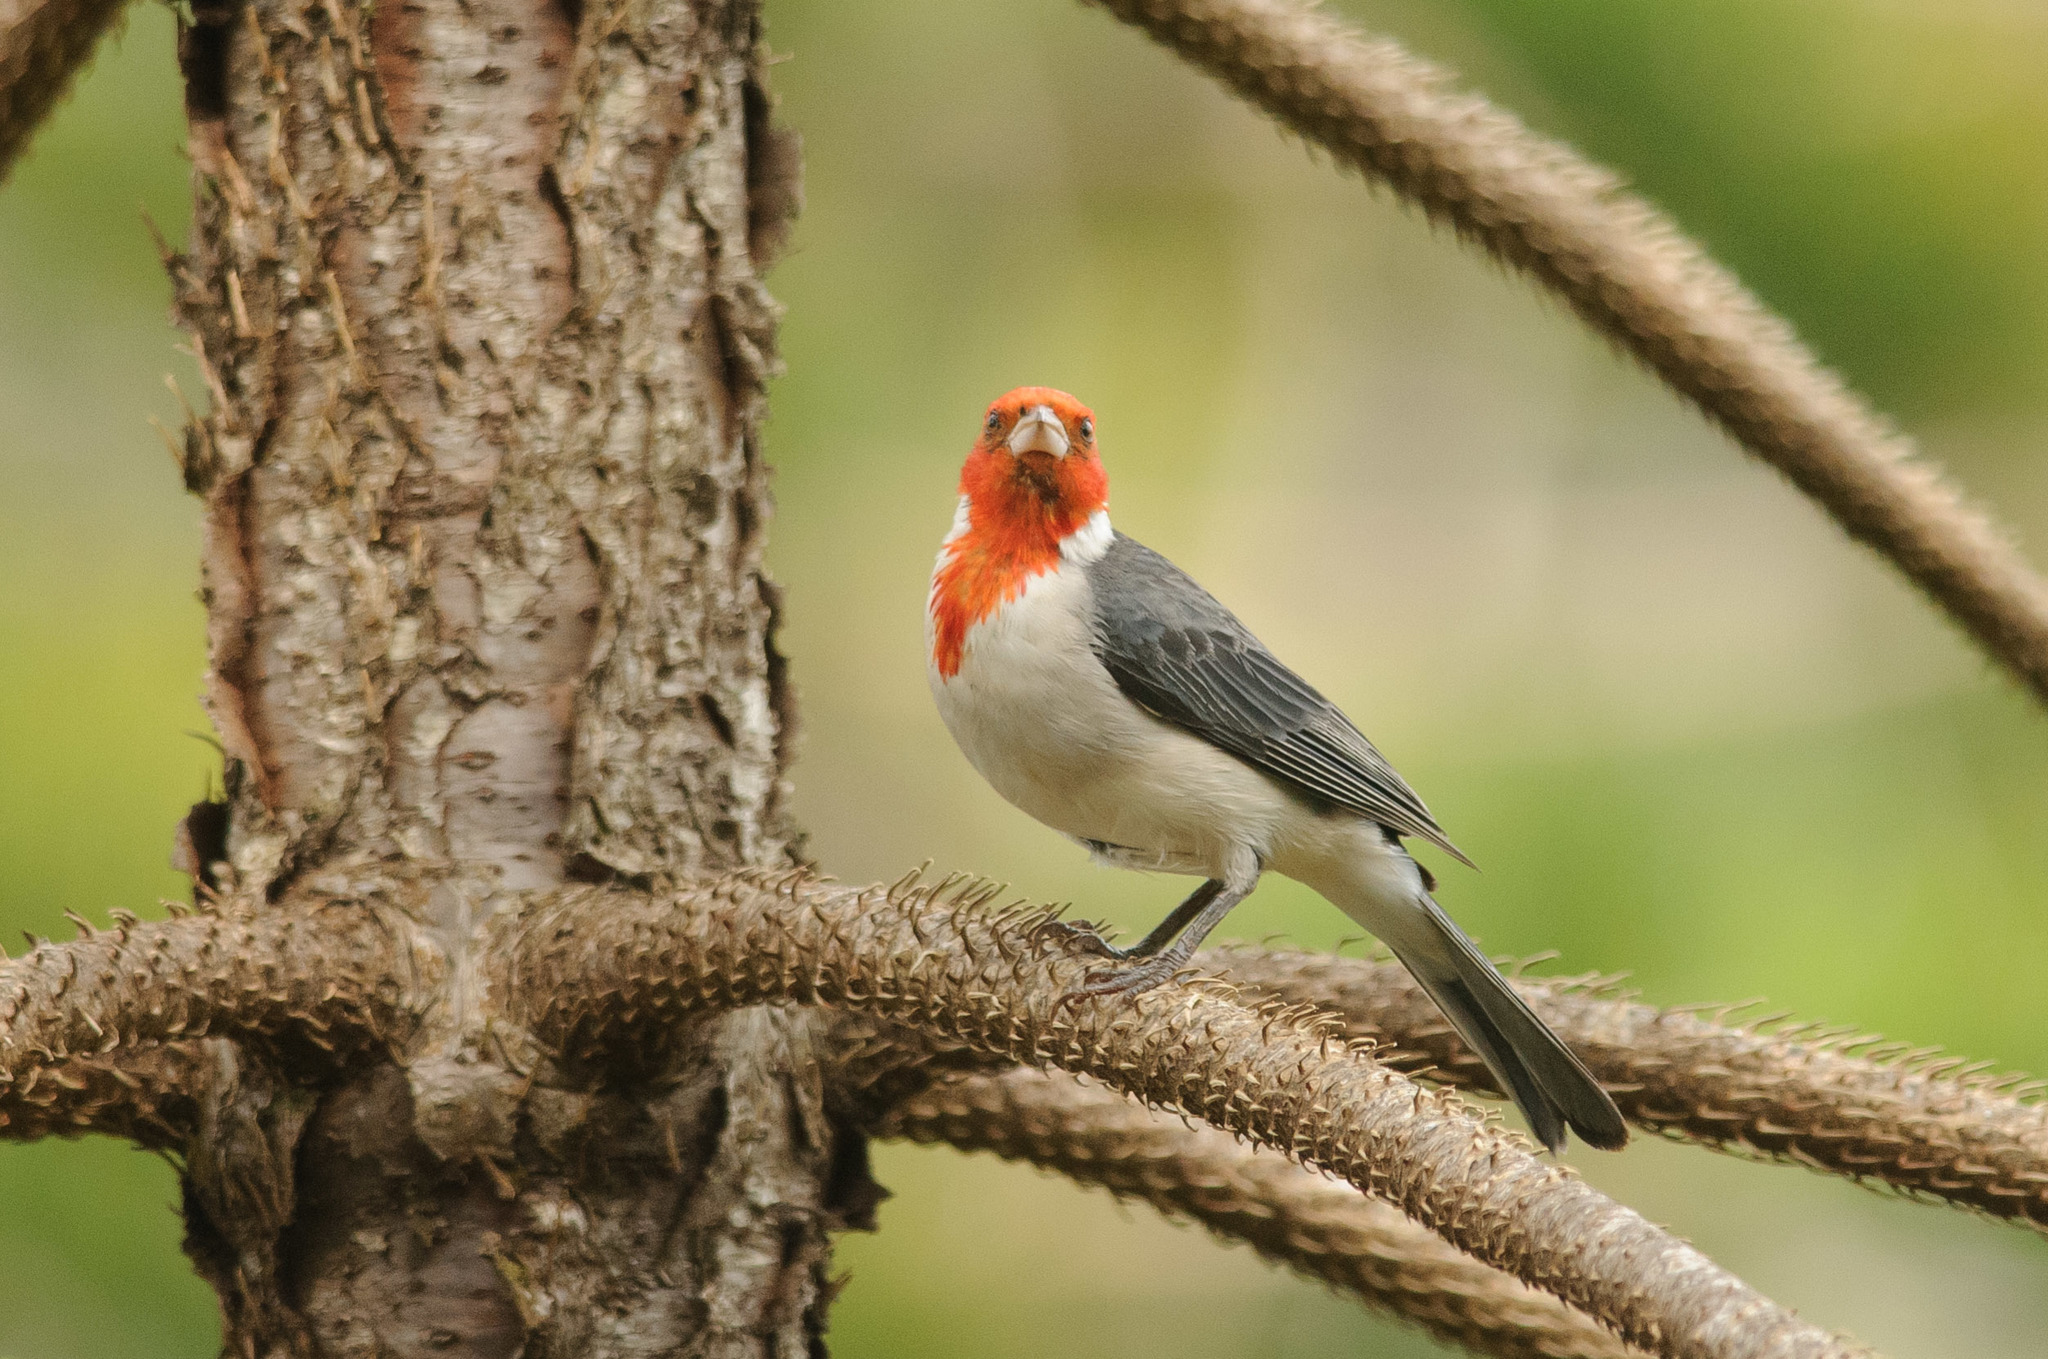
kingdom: Animalia
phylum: Chordata
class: Aves
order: Passeriformes
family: Thraupidae
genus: Paroaria
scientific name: Paroaria coronata
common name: Red-crested cardinal
